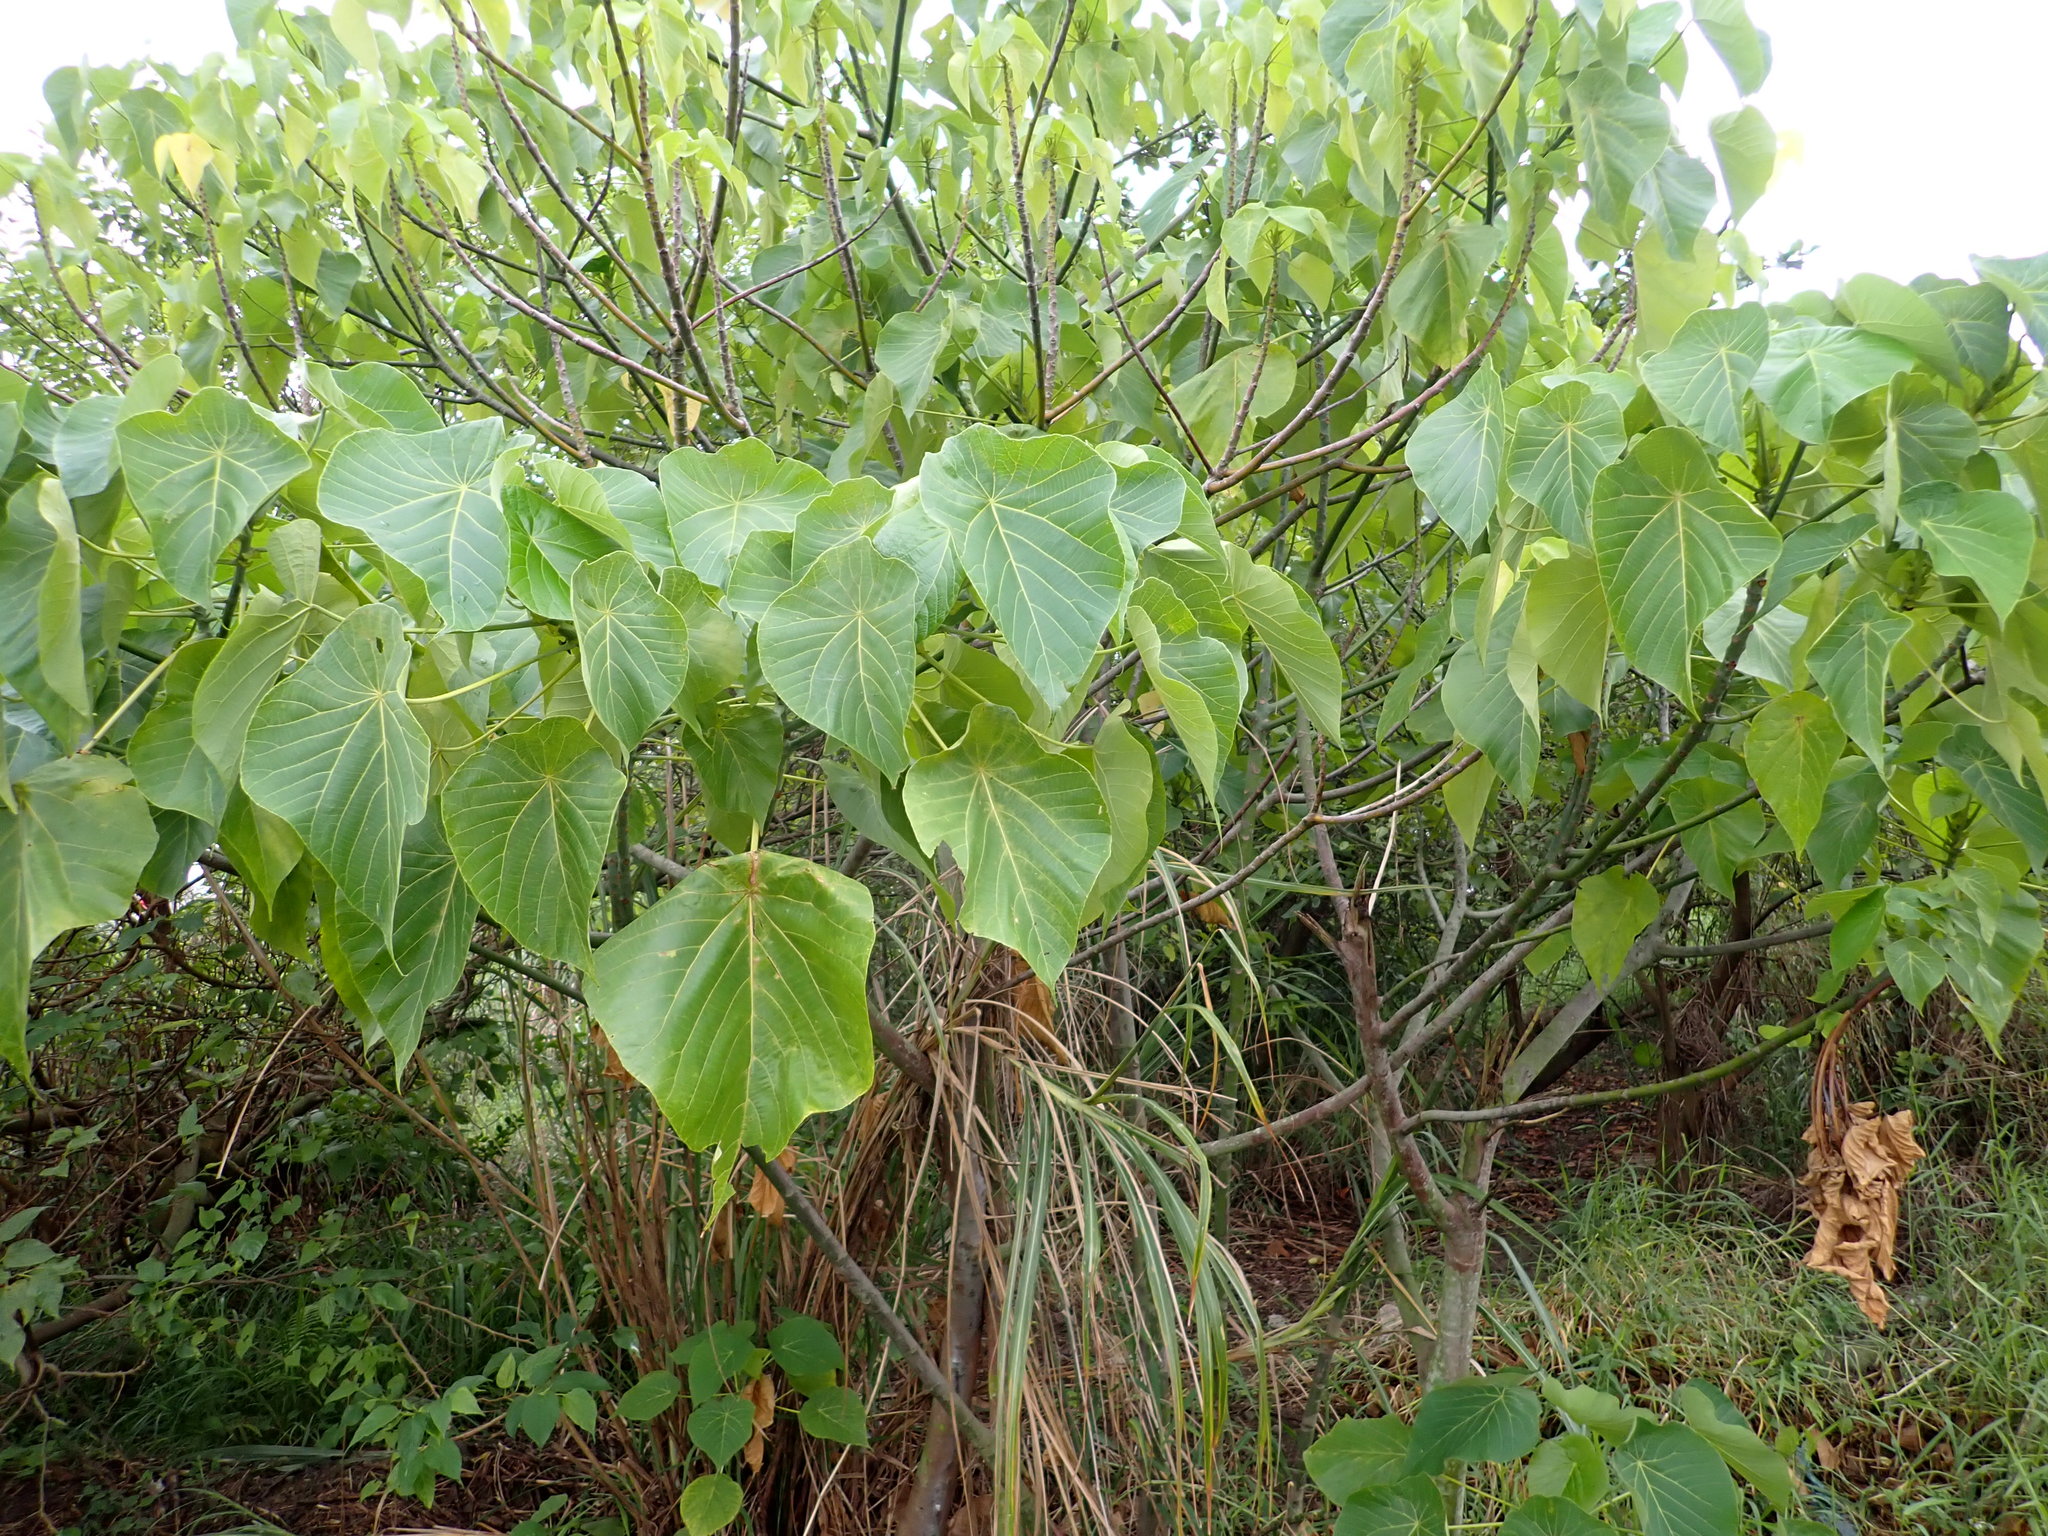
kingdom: Plantae
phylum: Tracheophyta
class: Magnoliopsida
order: Malpighiales
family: Euphorbiaceae
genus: Macaranga
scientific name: Macaranga tanarius
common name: Parasol leaf tree
